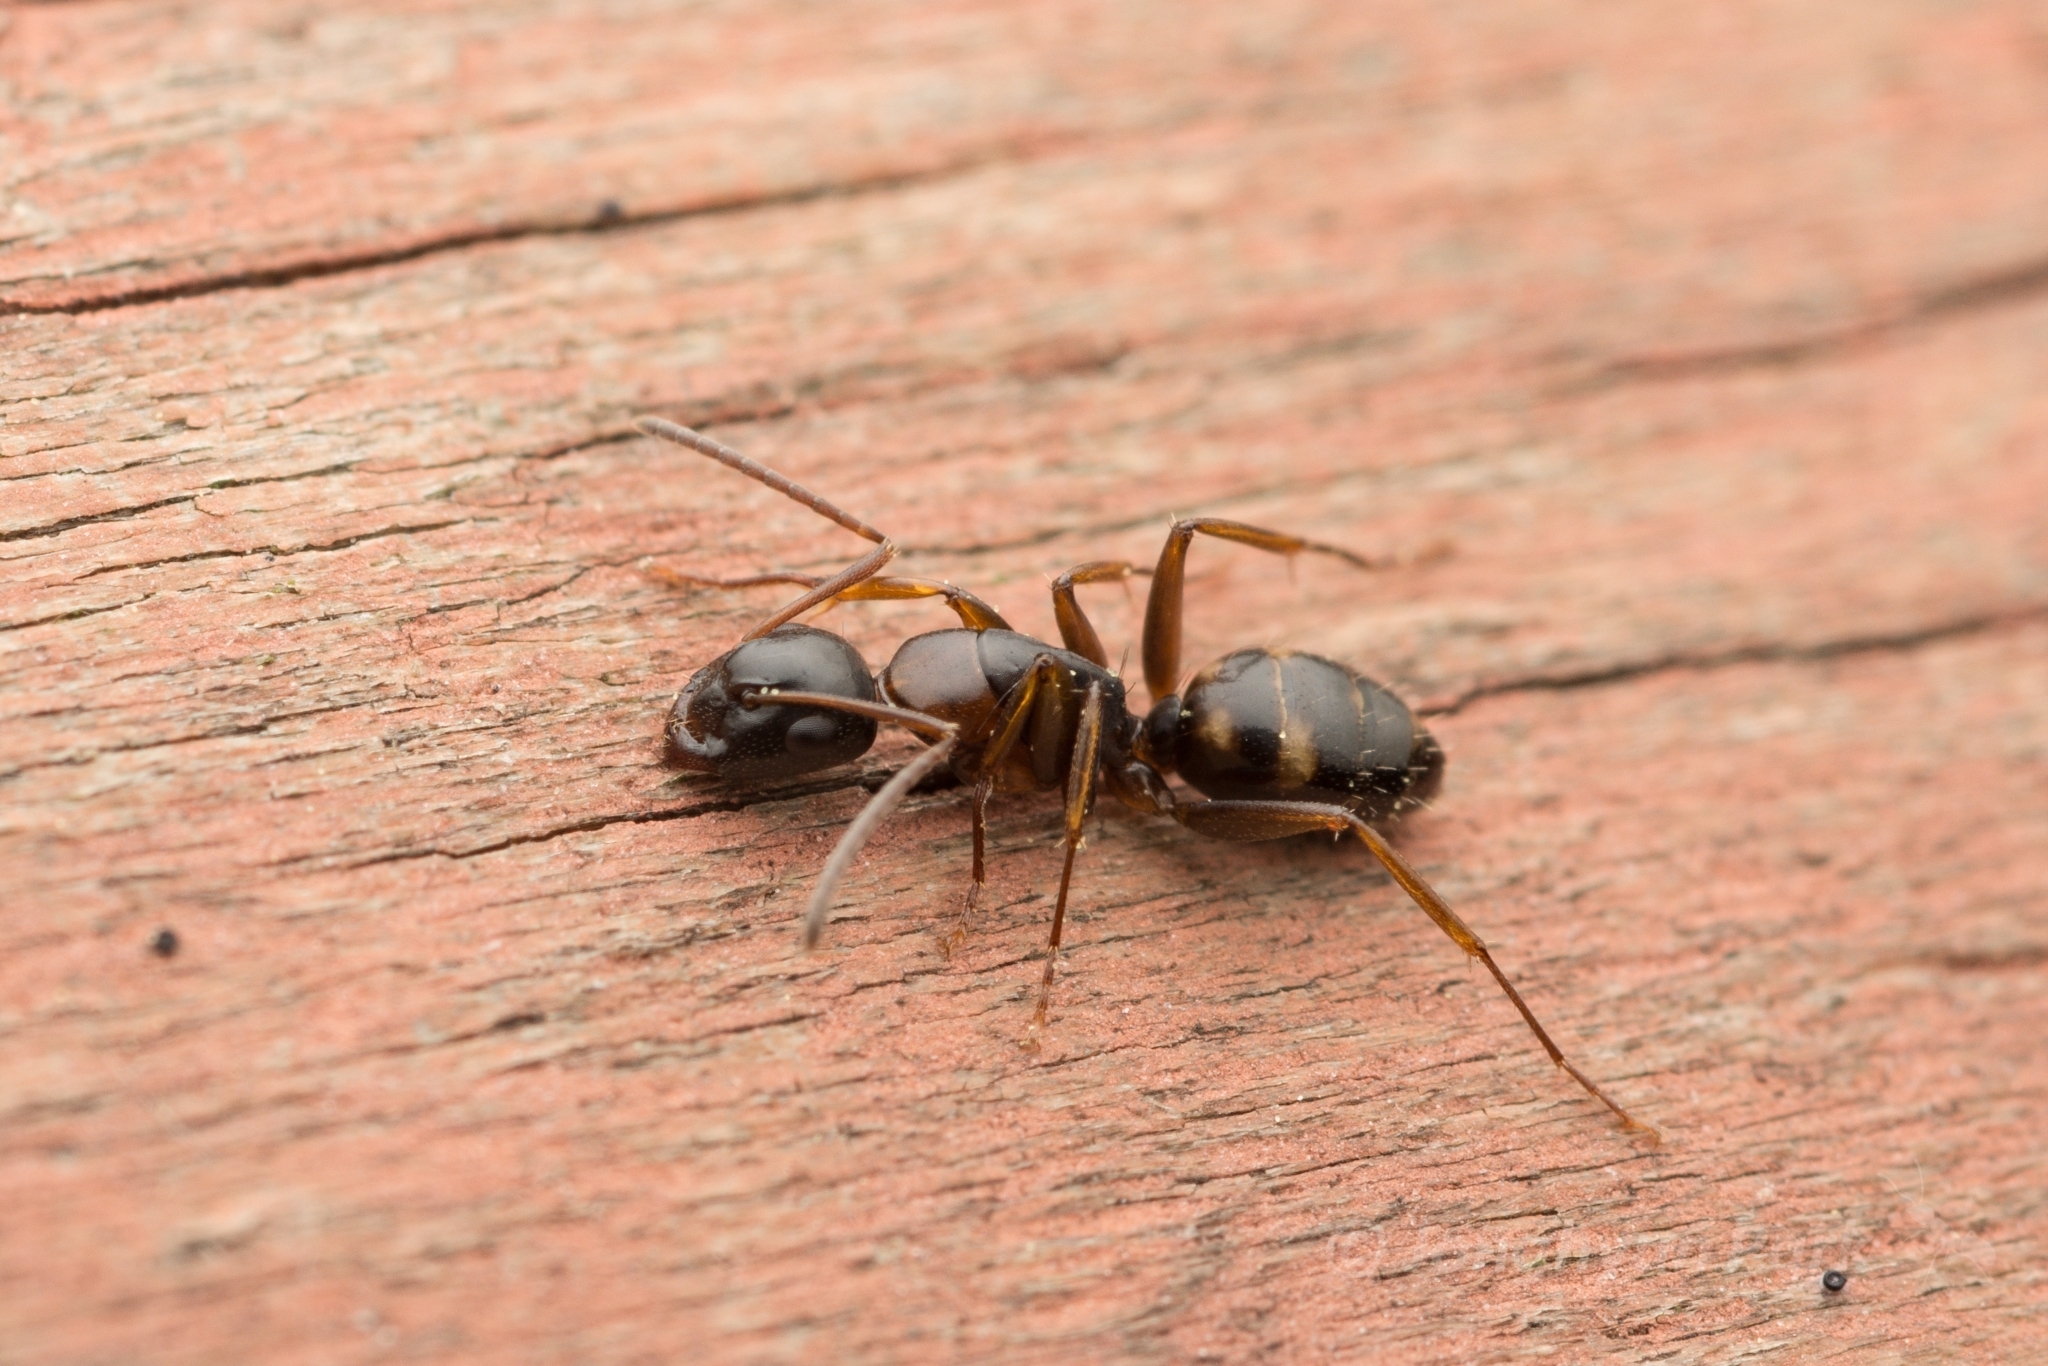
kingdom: Animalia
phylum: Arthropoda
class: Insecta
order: Hymenoptera
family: Formicidae
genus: Camponotus
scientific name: Camponotus quadrinotatus
